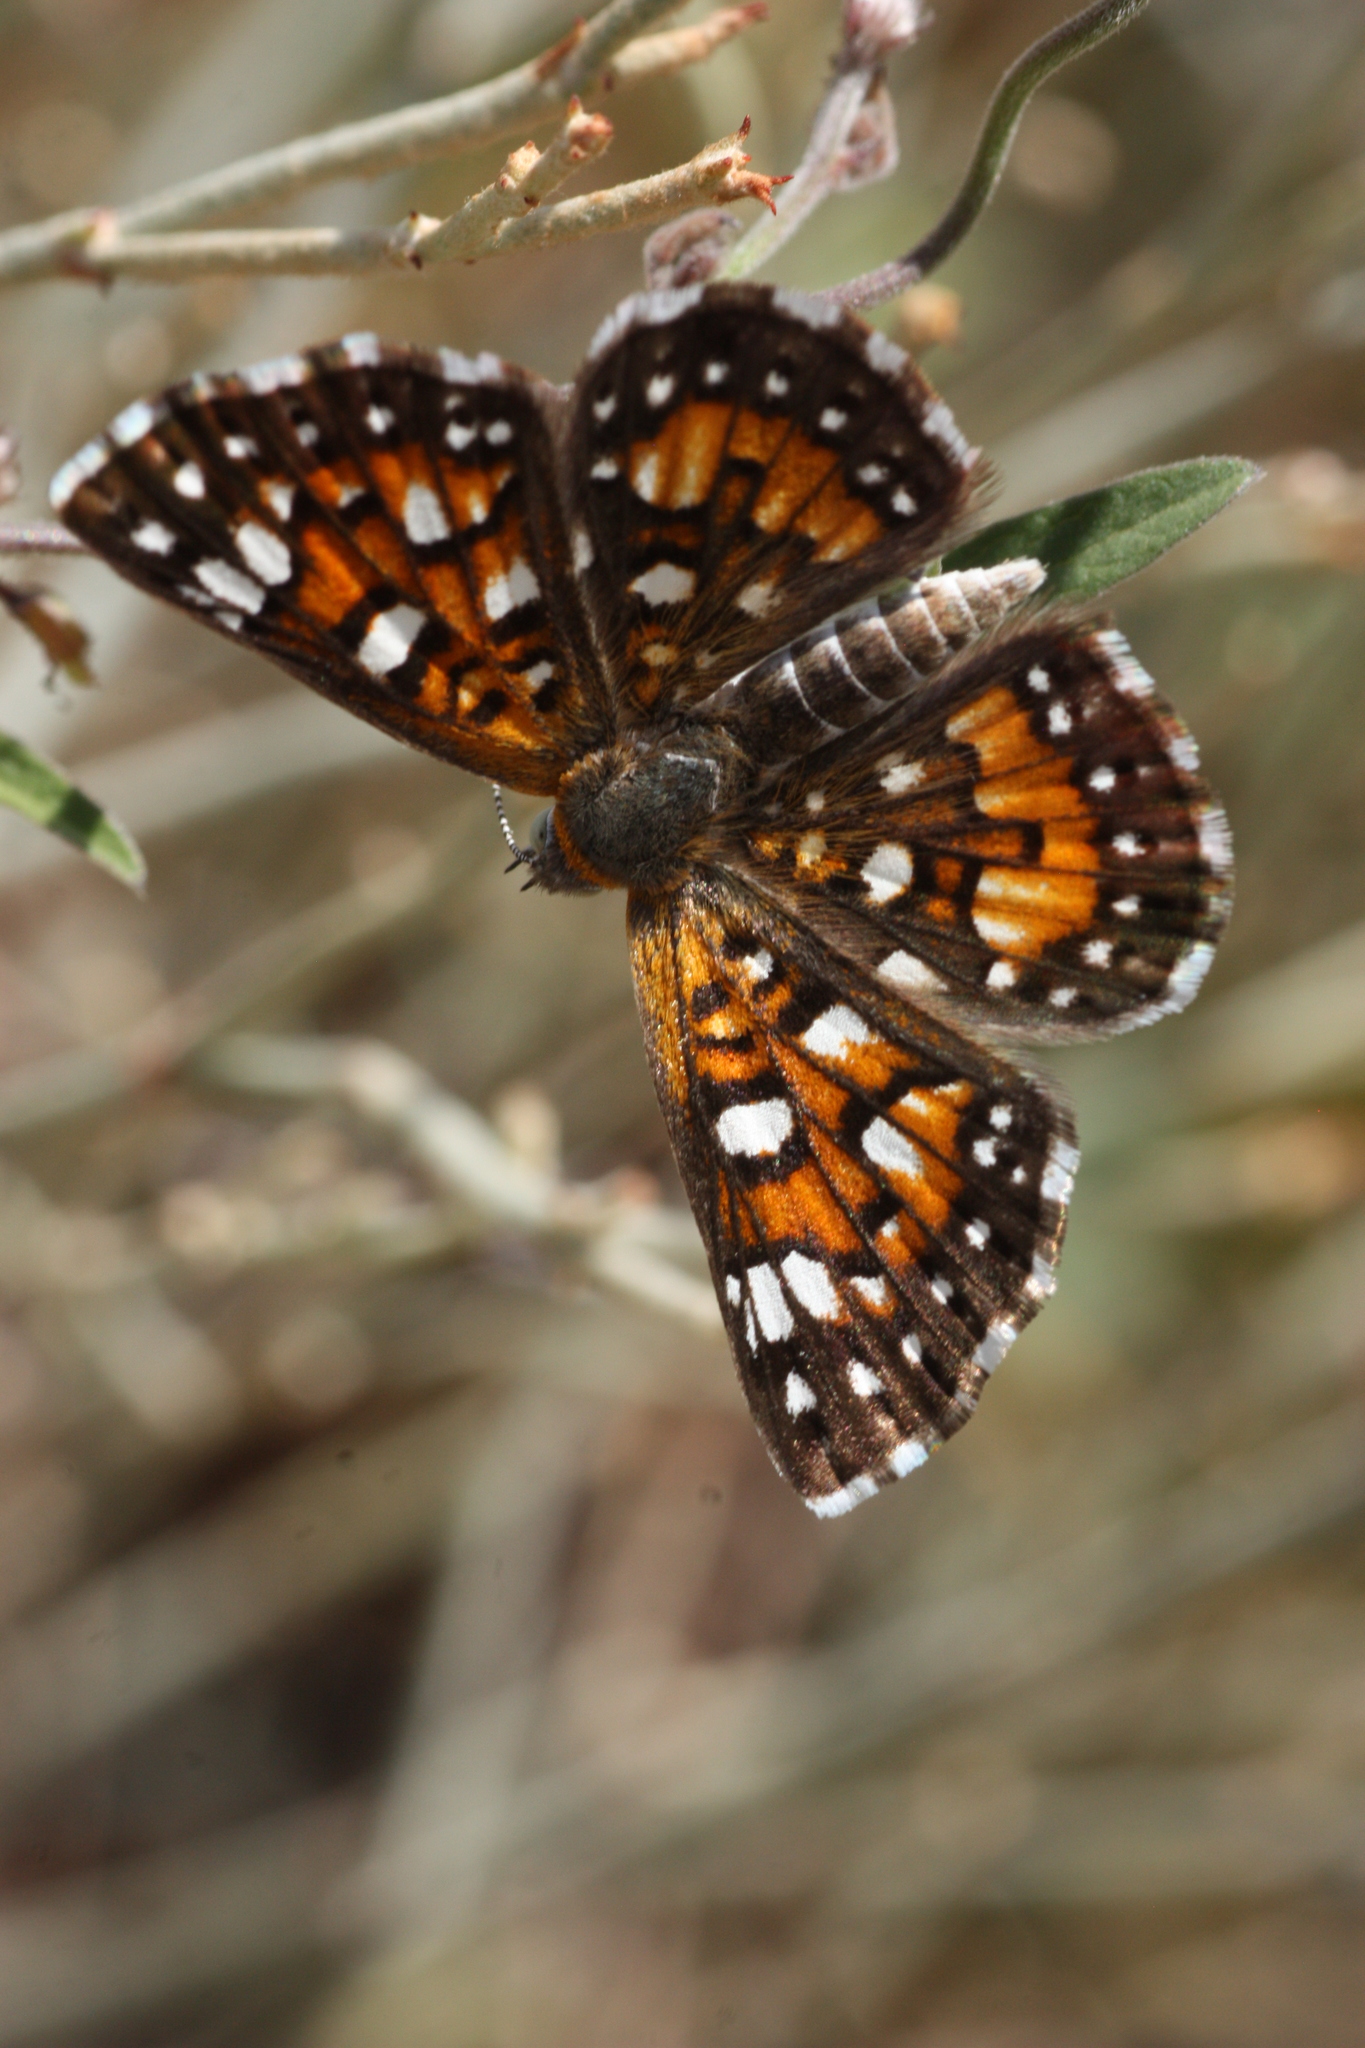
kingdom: Animalia
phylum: Arthropoda
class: Insecta
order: Lepidoptera
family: Riodinidae
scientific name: Riodinidae
